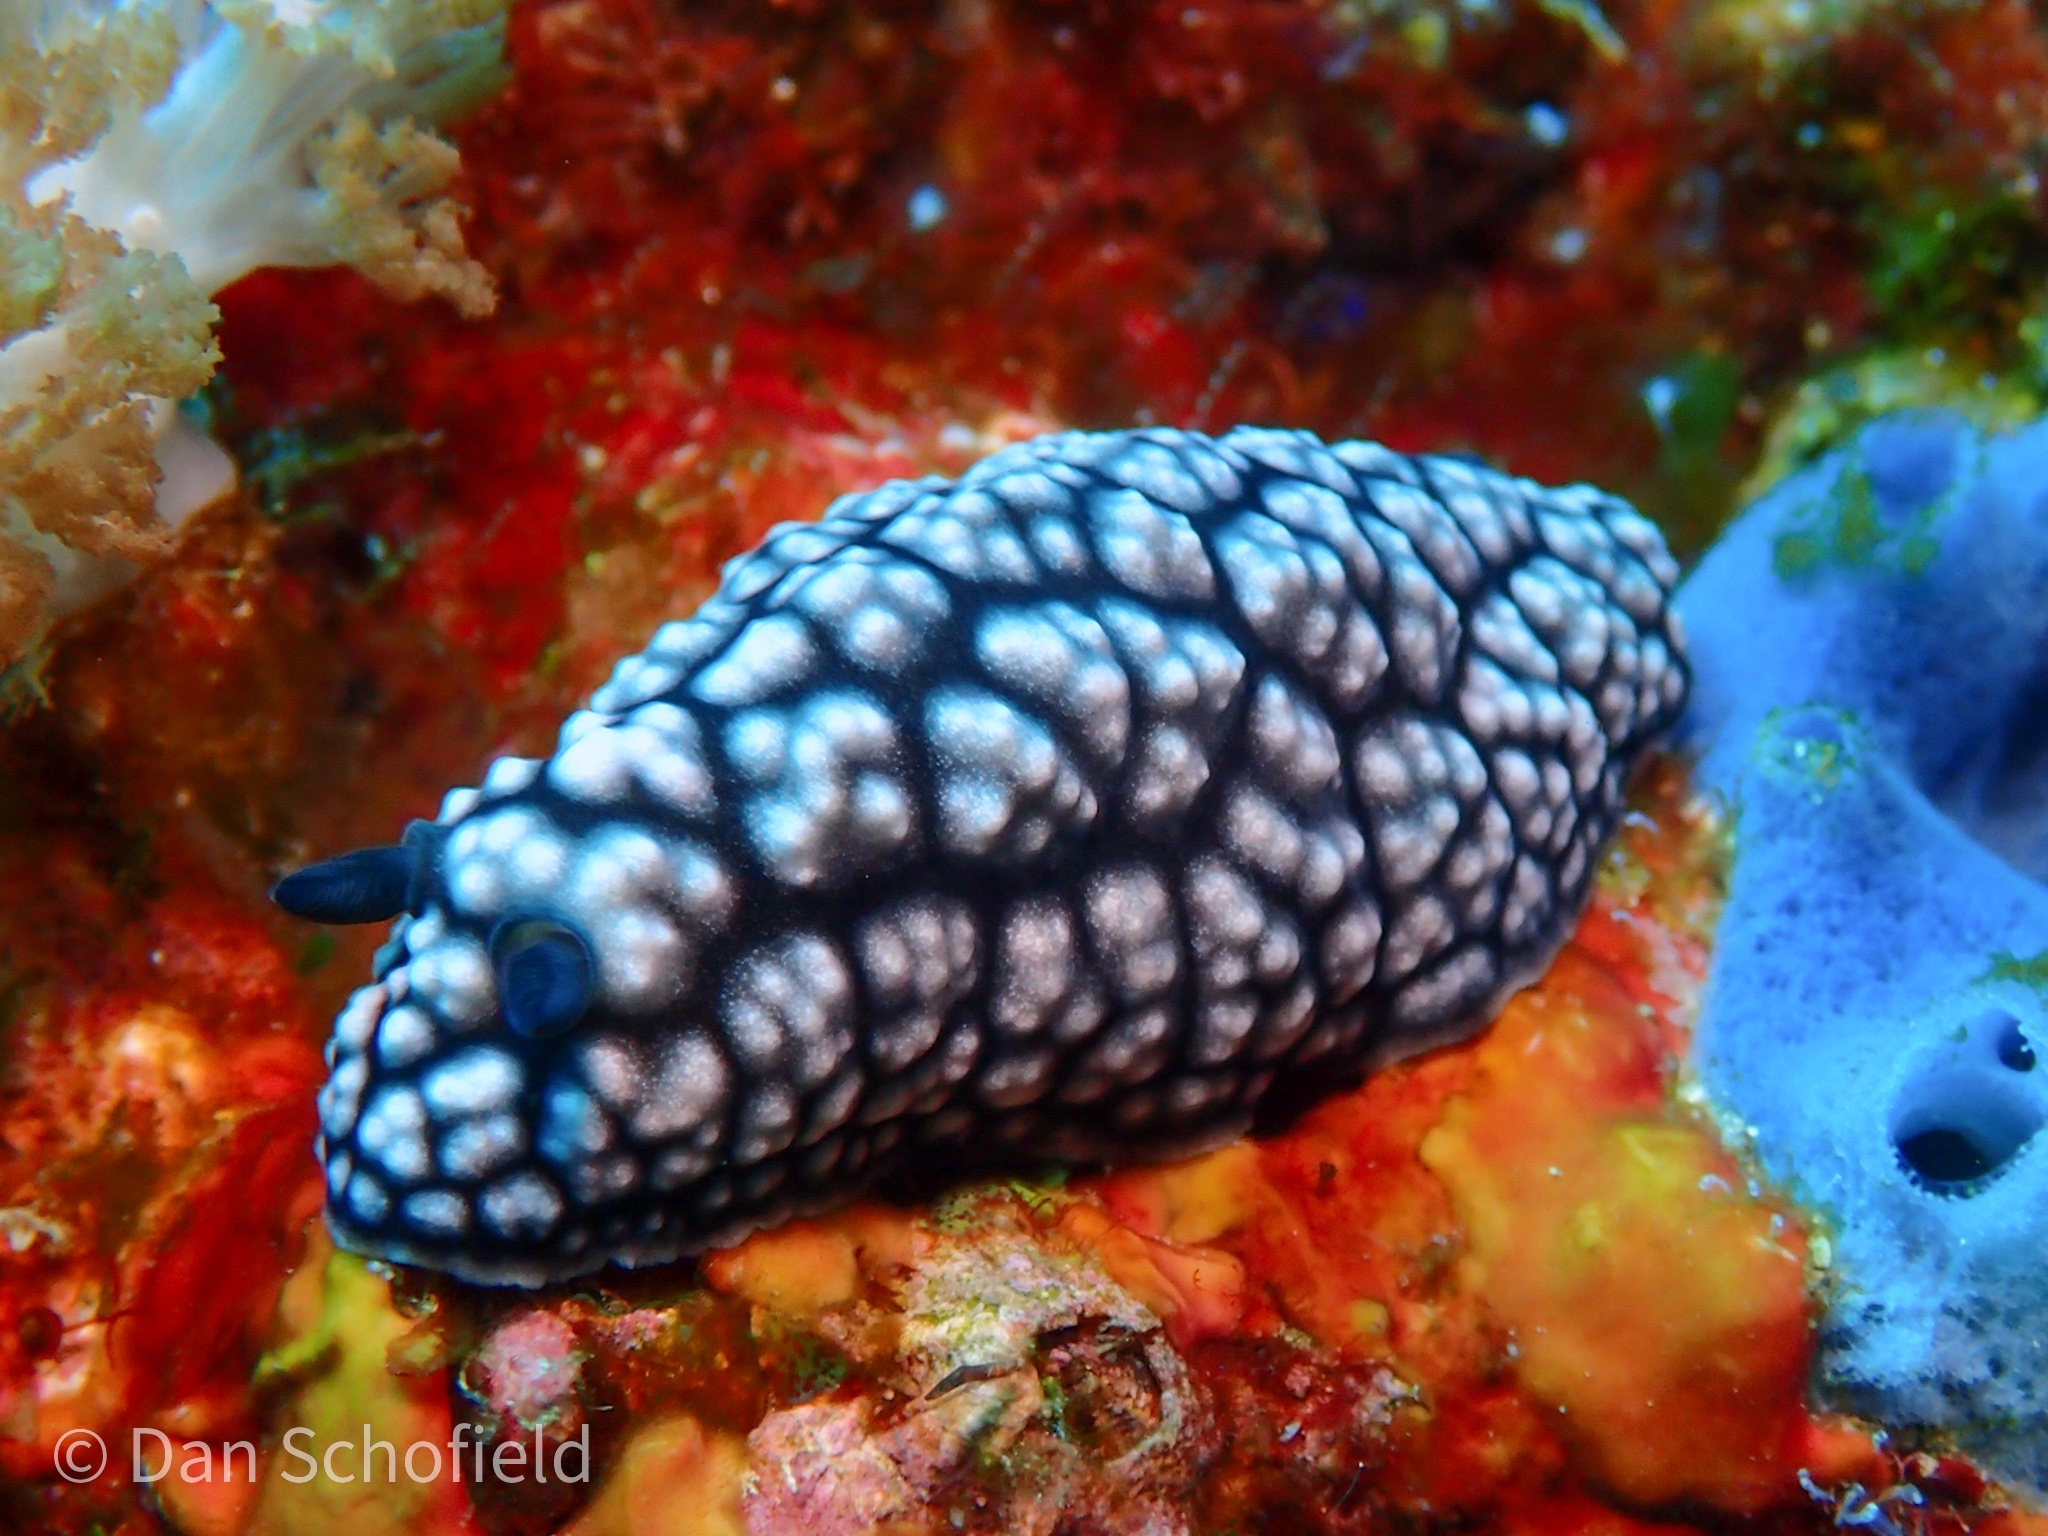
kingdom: Animalia
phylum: Mollusca
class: Gastropoda
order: Nudibranchia
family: Phyllidiidae
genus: Phyllidiella
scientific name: Phyllidiella pustulosa
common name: Pustular phyllidia
